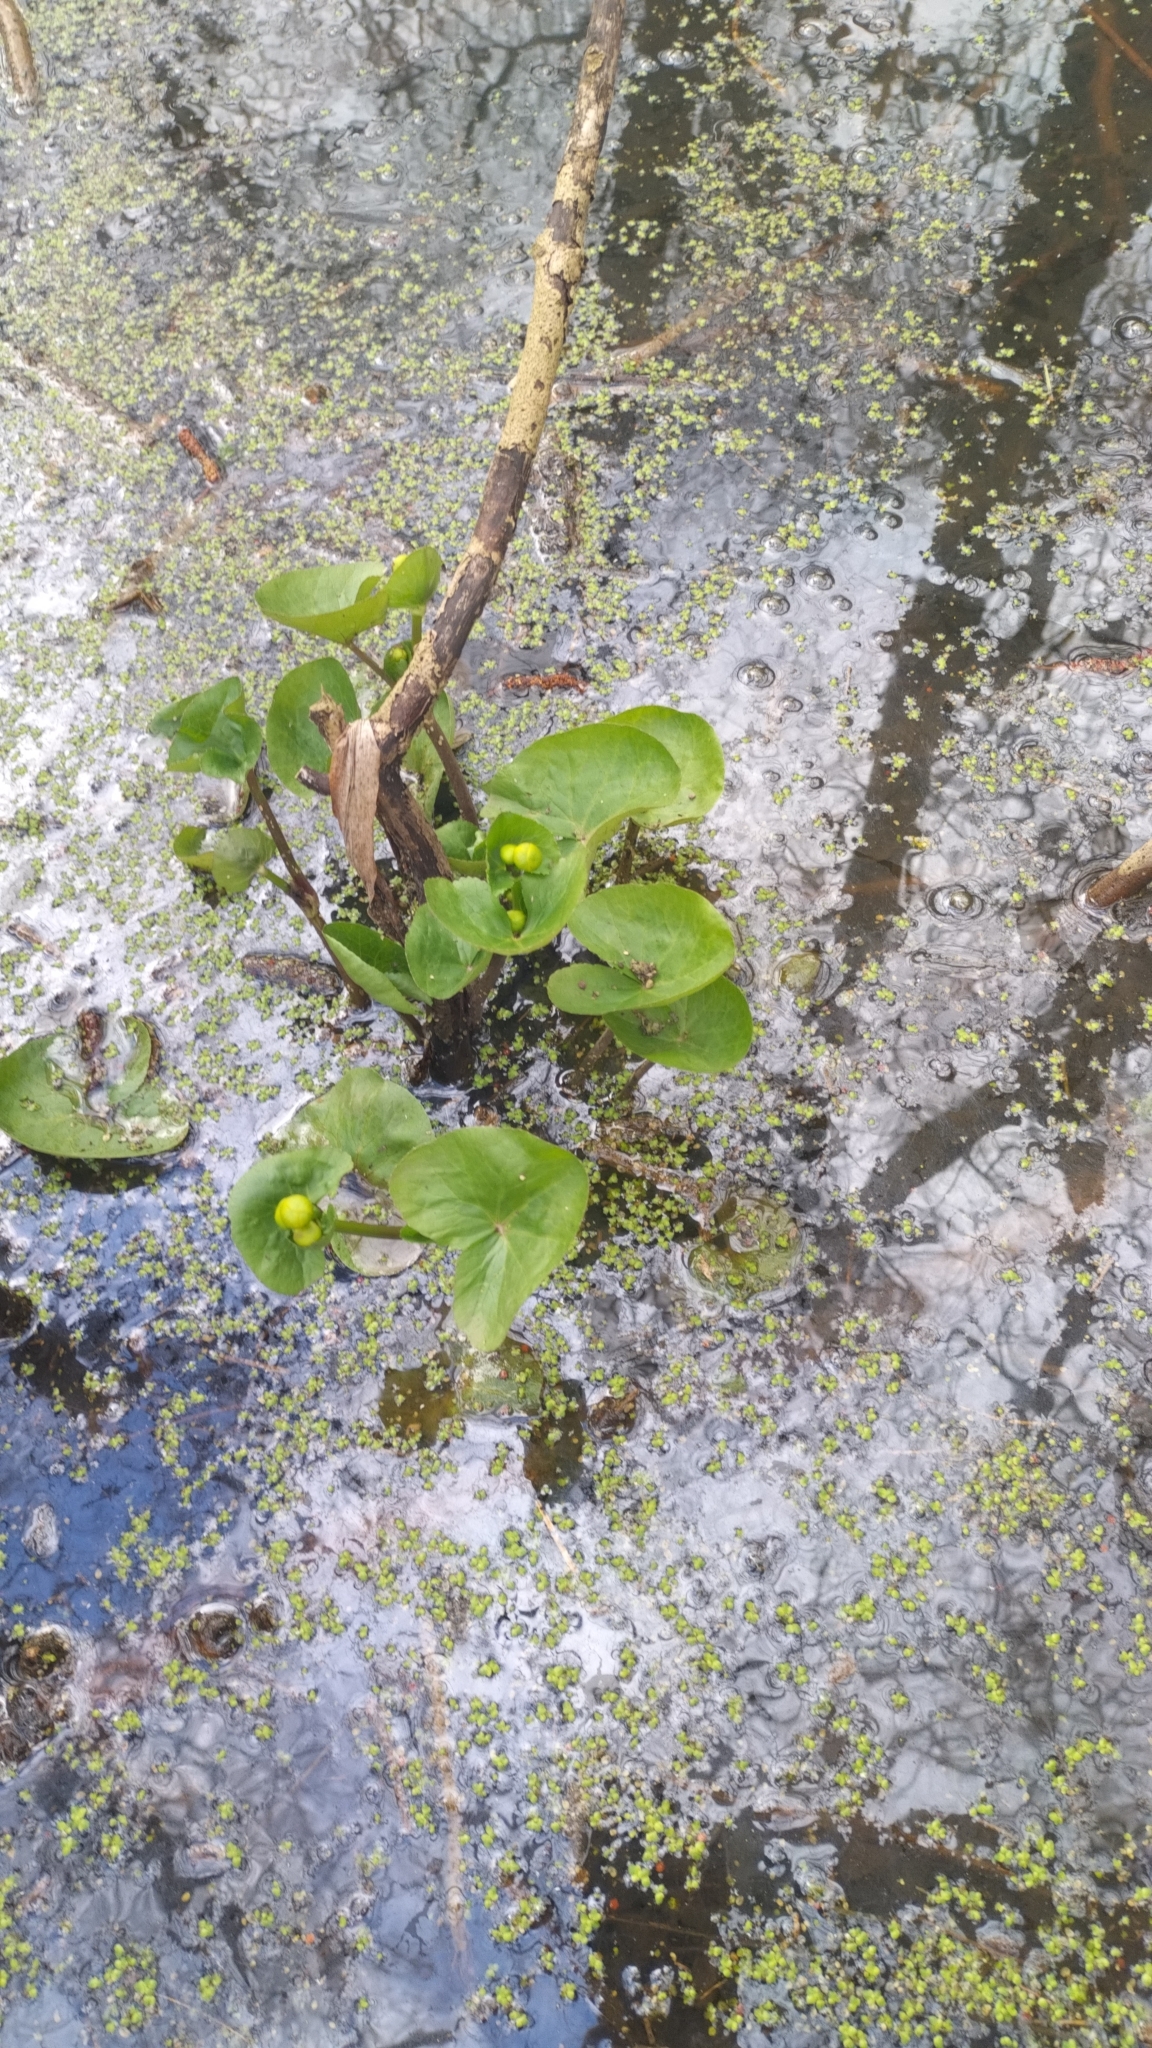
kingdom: Plantae
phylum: Tracheophyta
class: Magnoliopsida
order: Ranunculales
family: Ranunculaceae
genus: Caltha
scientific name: Caltha palustris
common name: Marsh marigold
